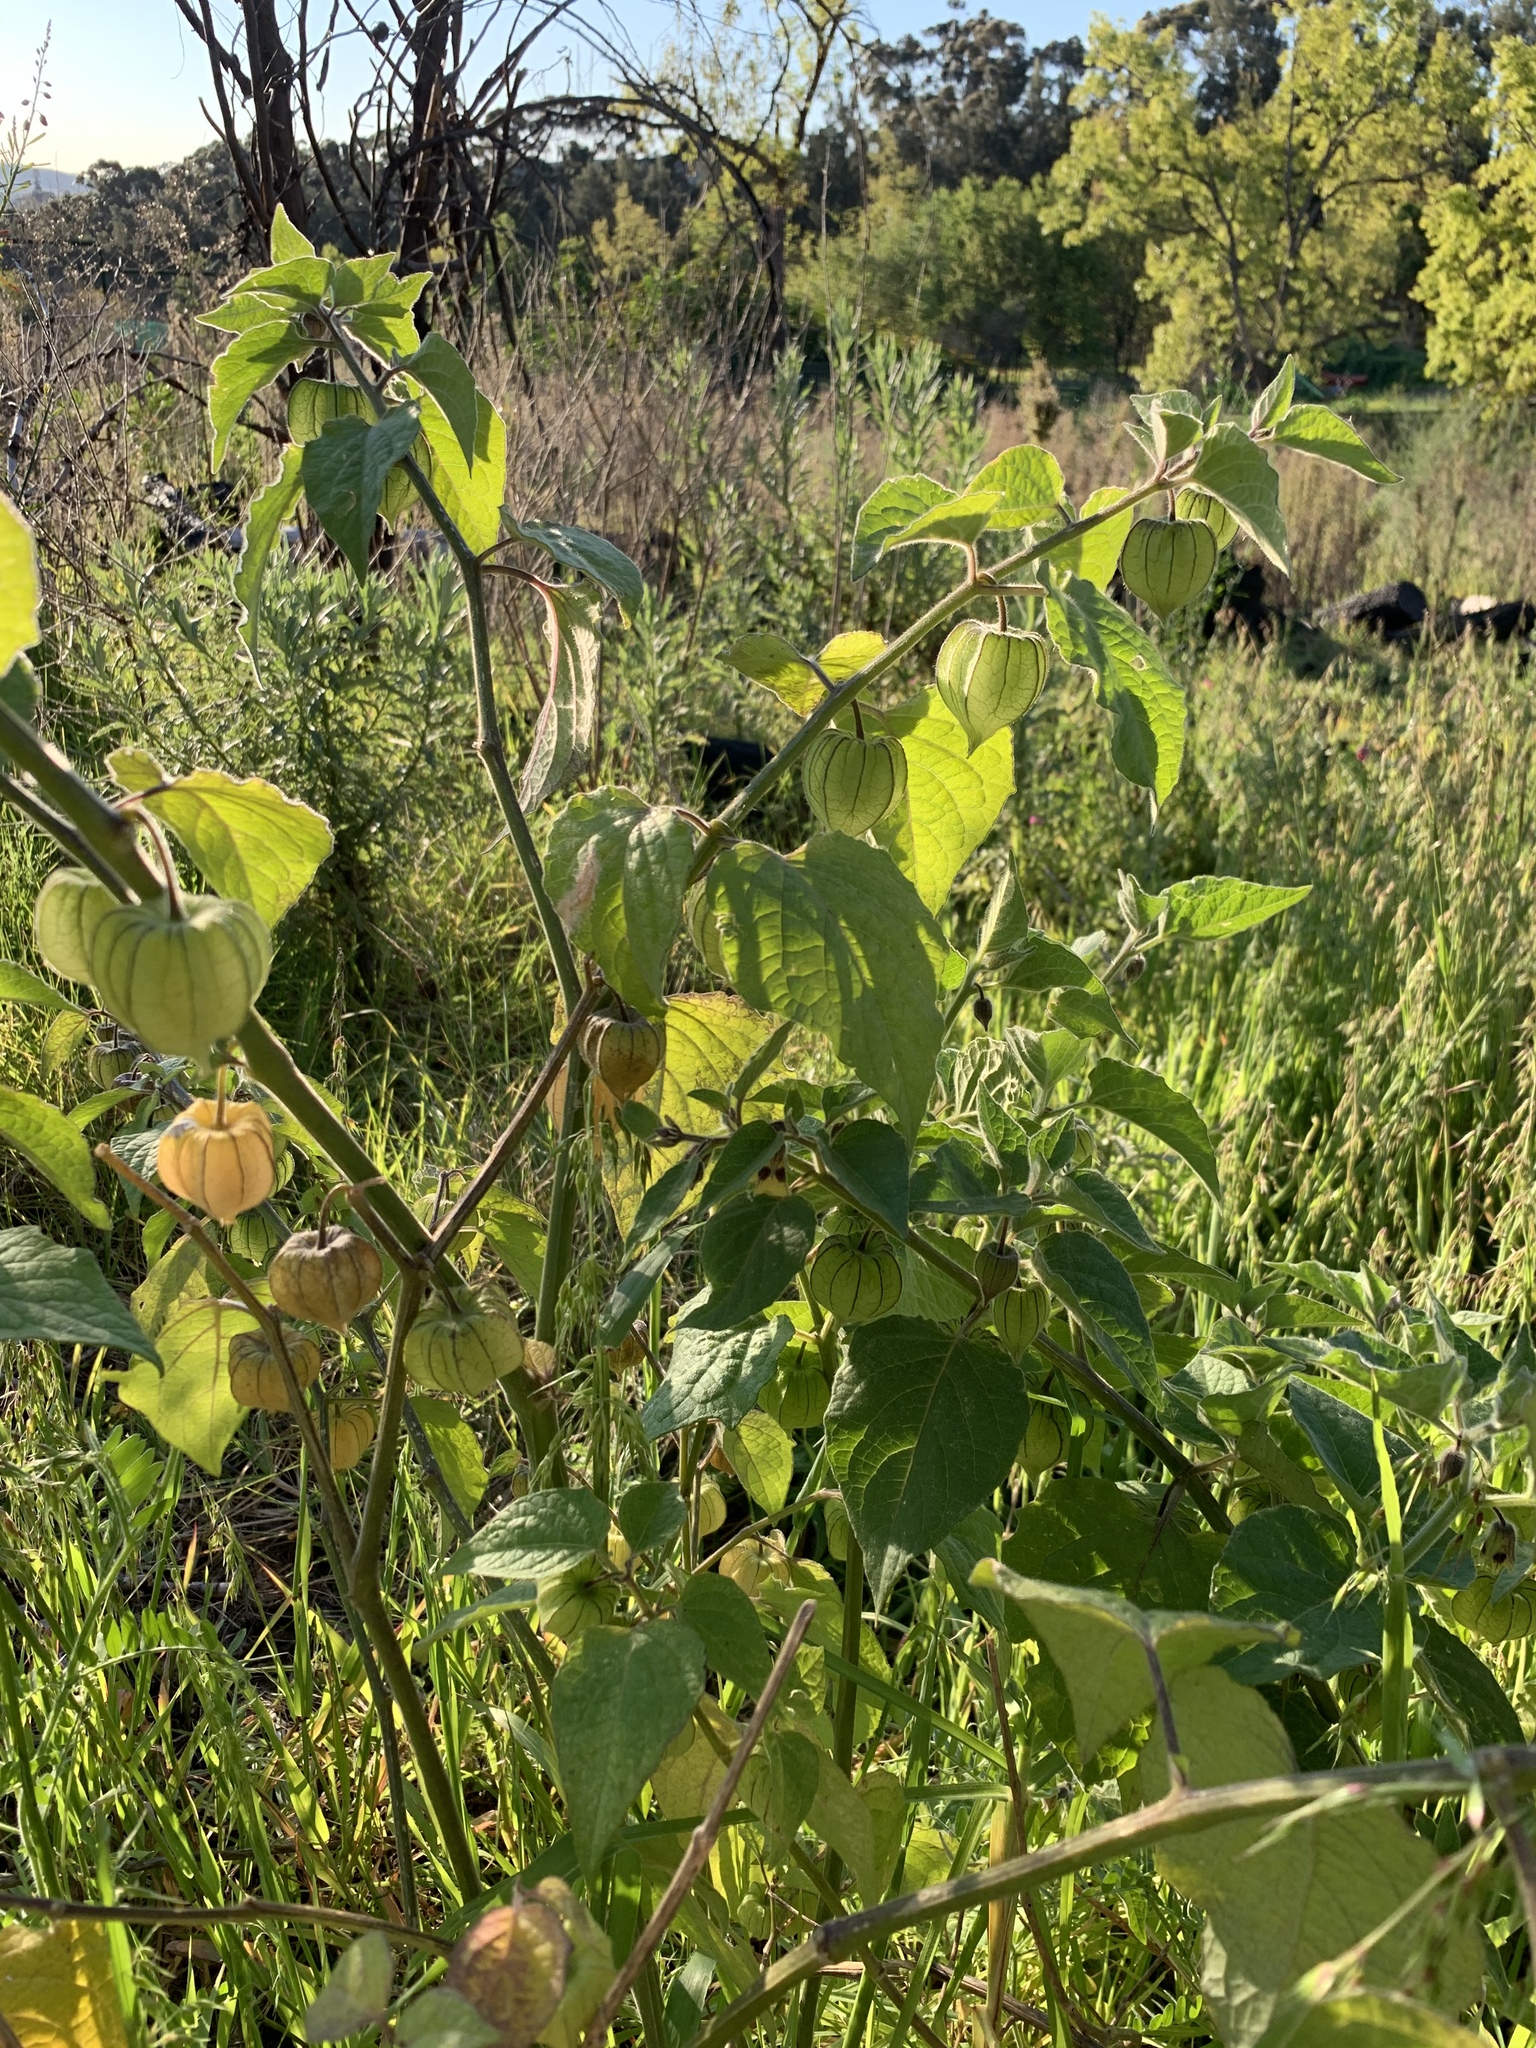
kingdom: Plantae
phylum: Tracheophyta
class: Magnoliopsida
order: Solanales
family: Solanaceae
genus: Physalis
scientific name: Physalis peruviana
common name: Cape-gooseberry
